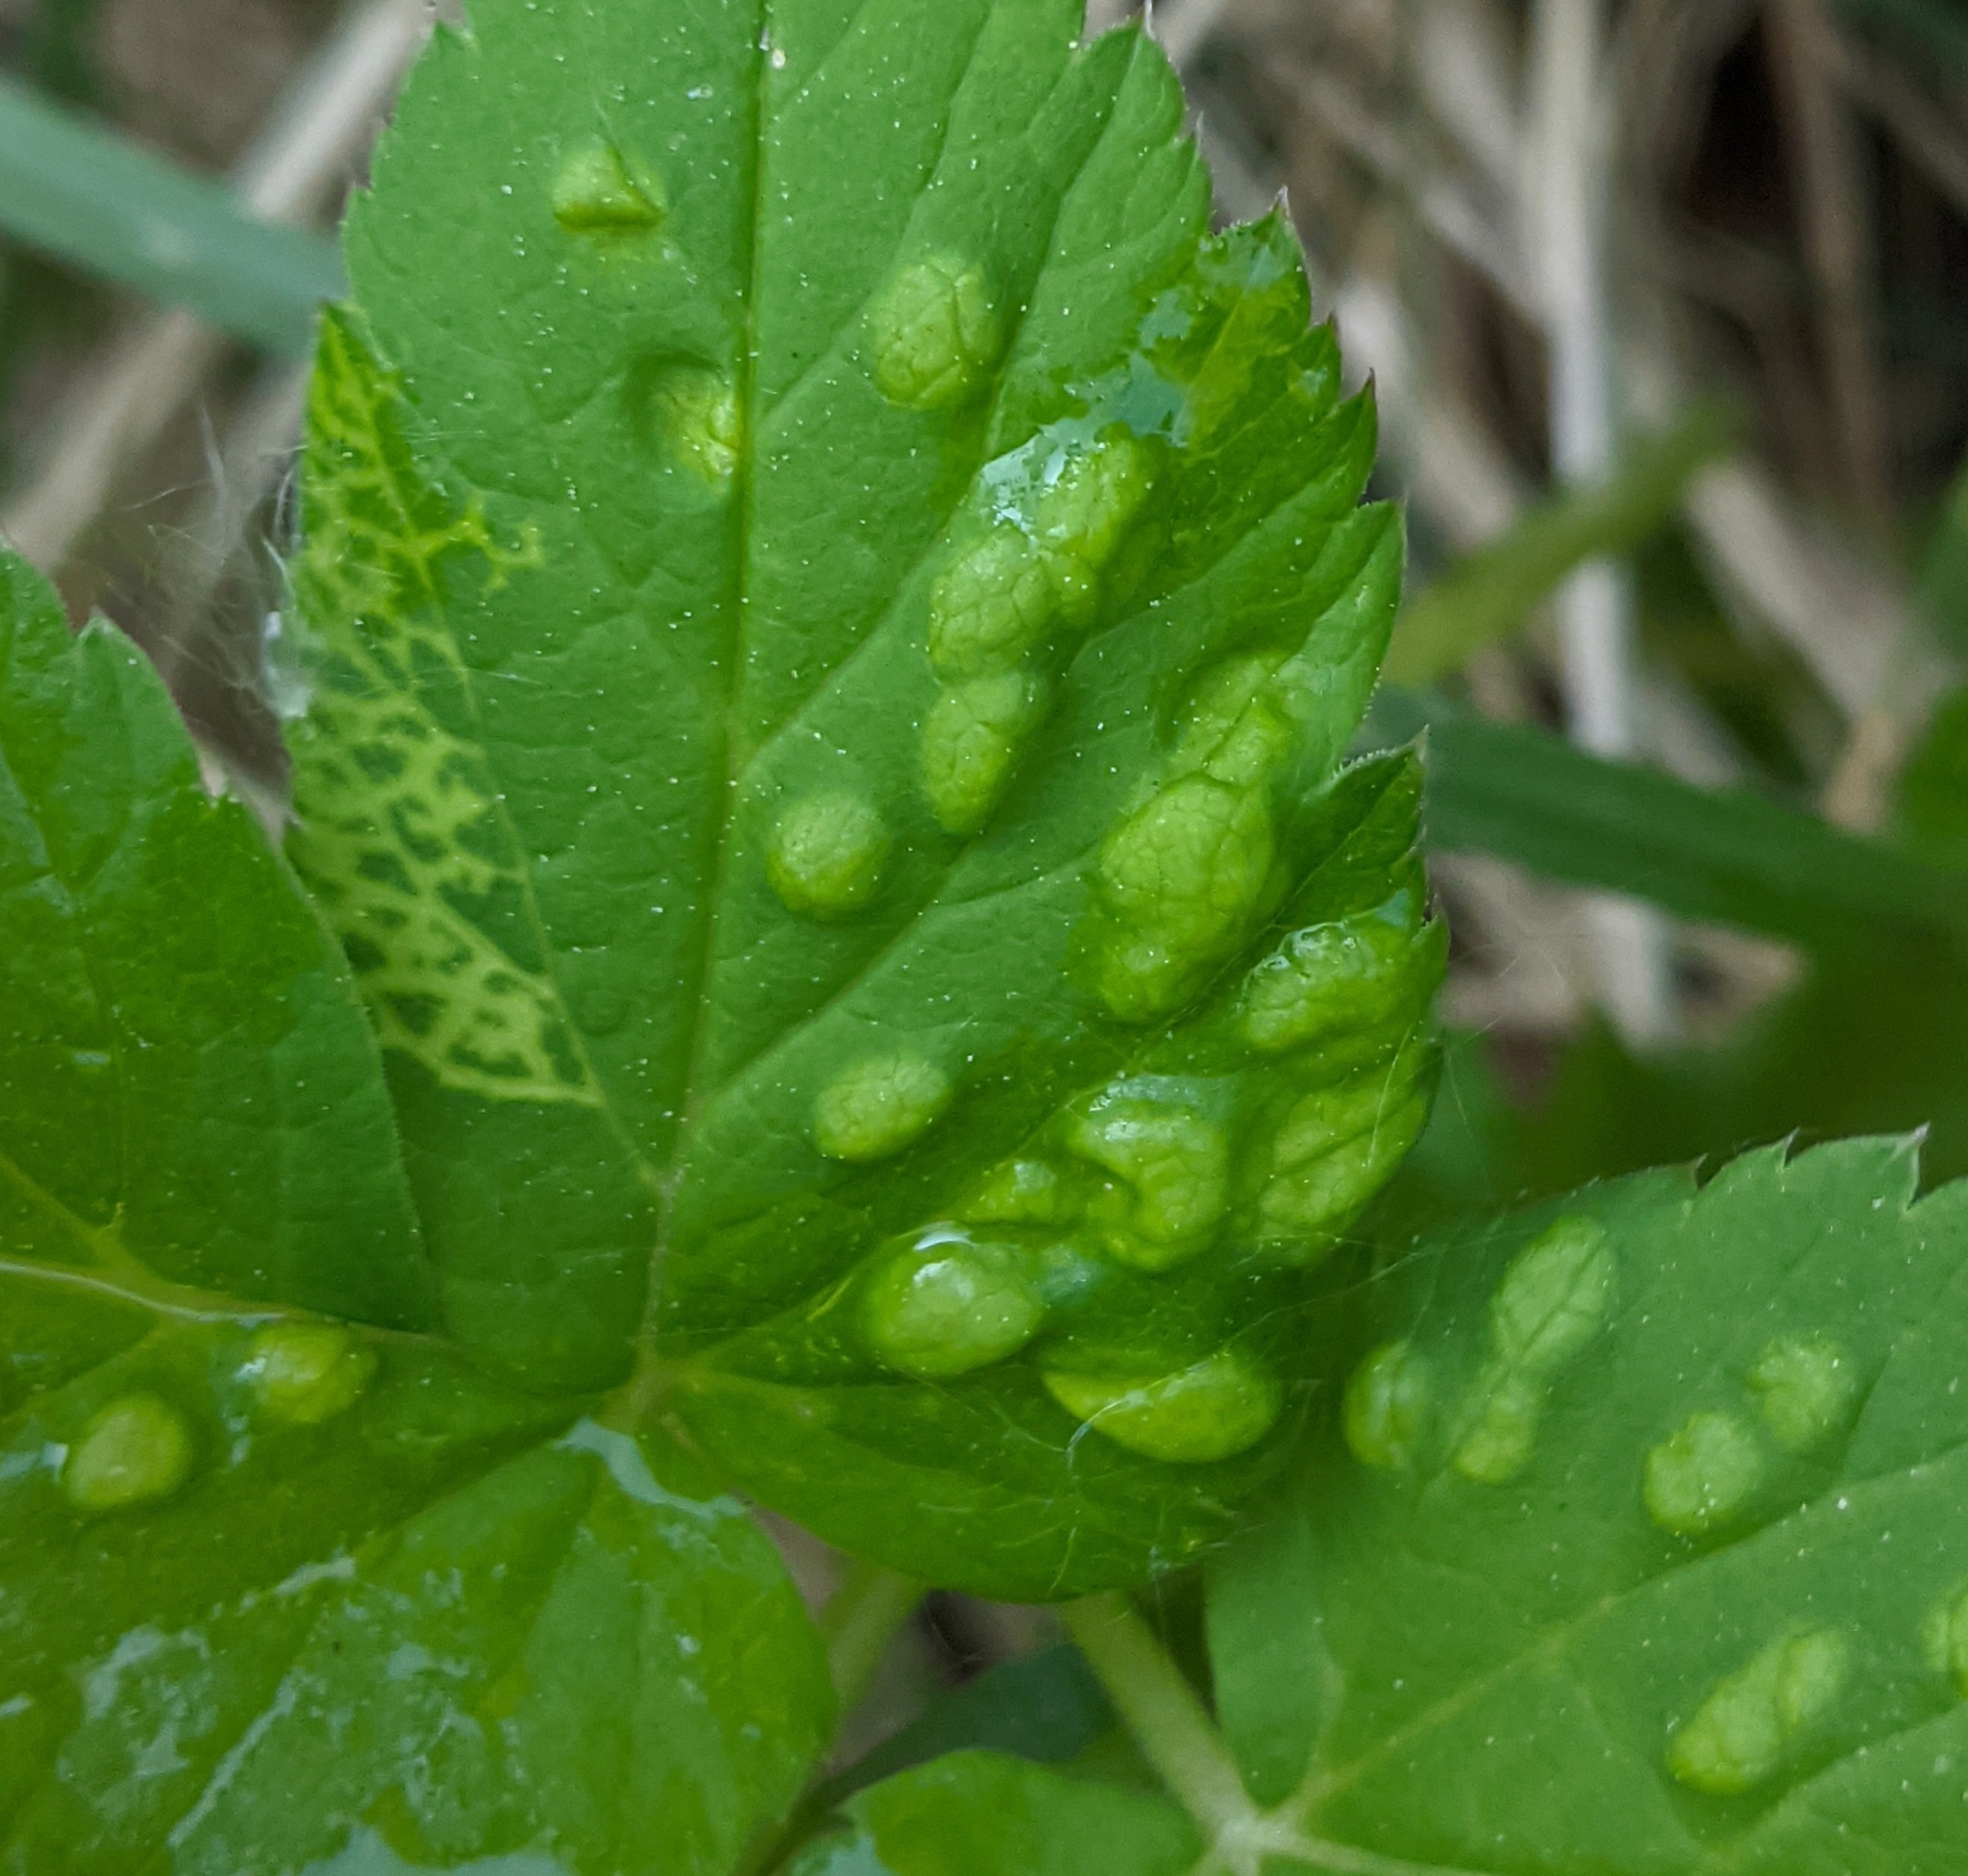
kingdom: Animalia
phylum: Arthropoda
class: Insecta
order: Hemiptera
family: Triozidae
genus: Trioza
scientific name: Trioza flavipennis
